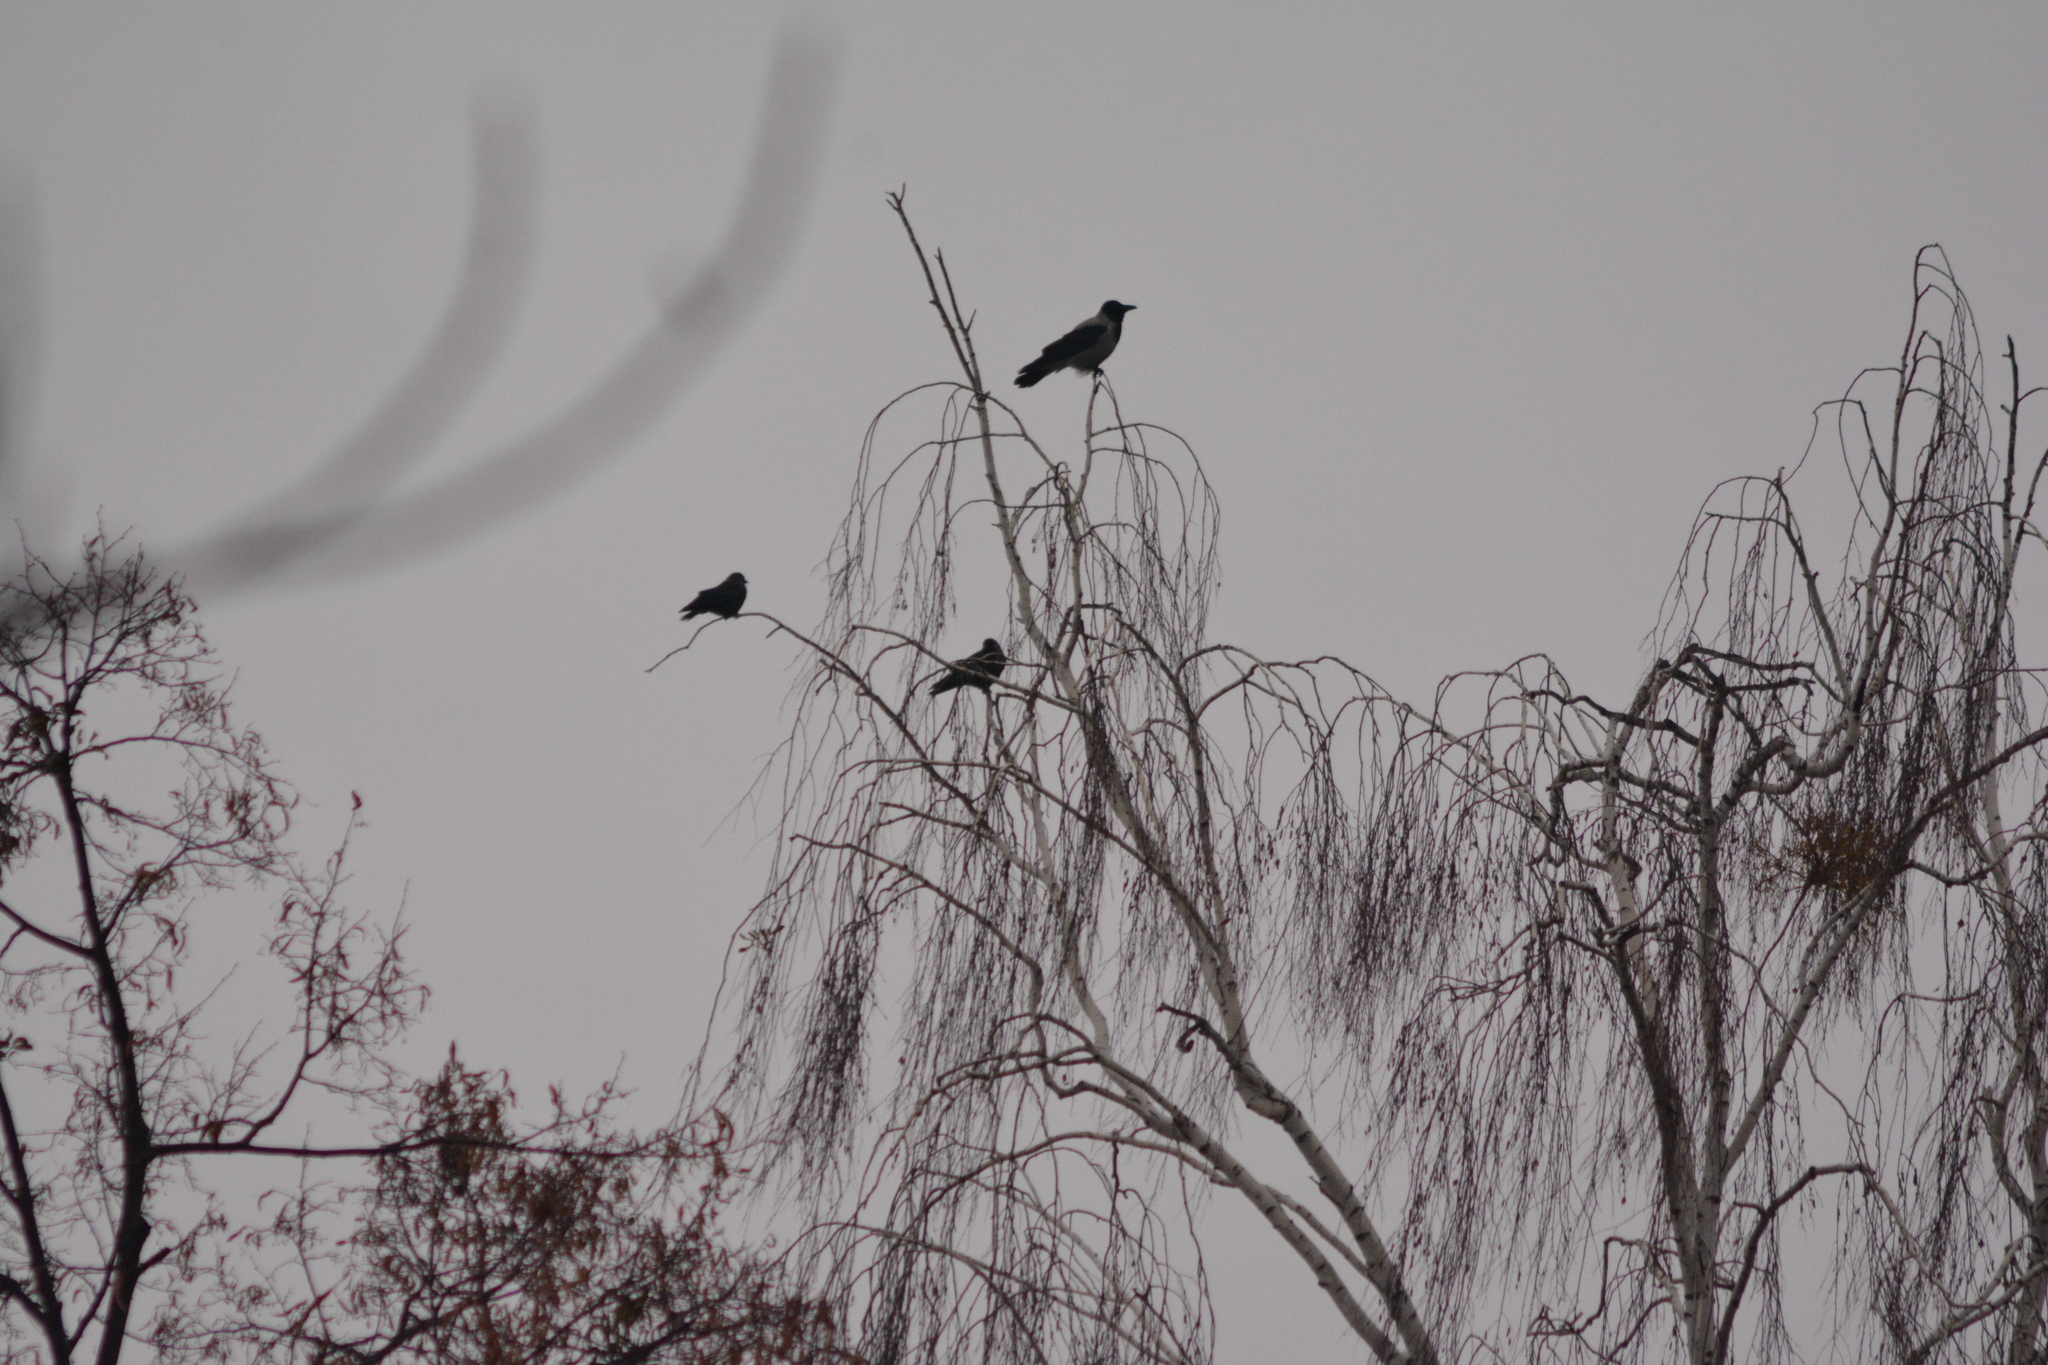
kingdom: Animalia
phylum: Chordata
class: Aves
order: Passeriformes
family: Corvidae
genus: Corvus
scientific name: Corvus cornix
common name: Hooded crow
